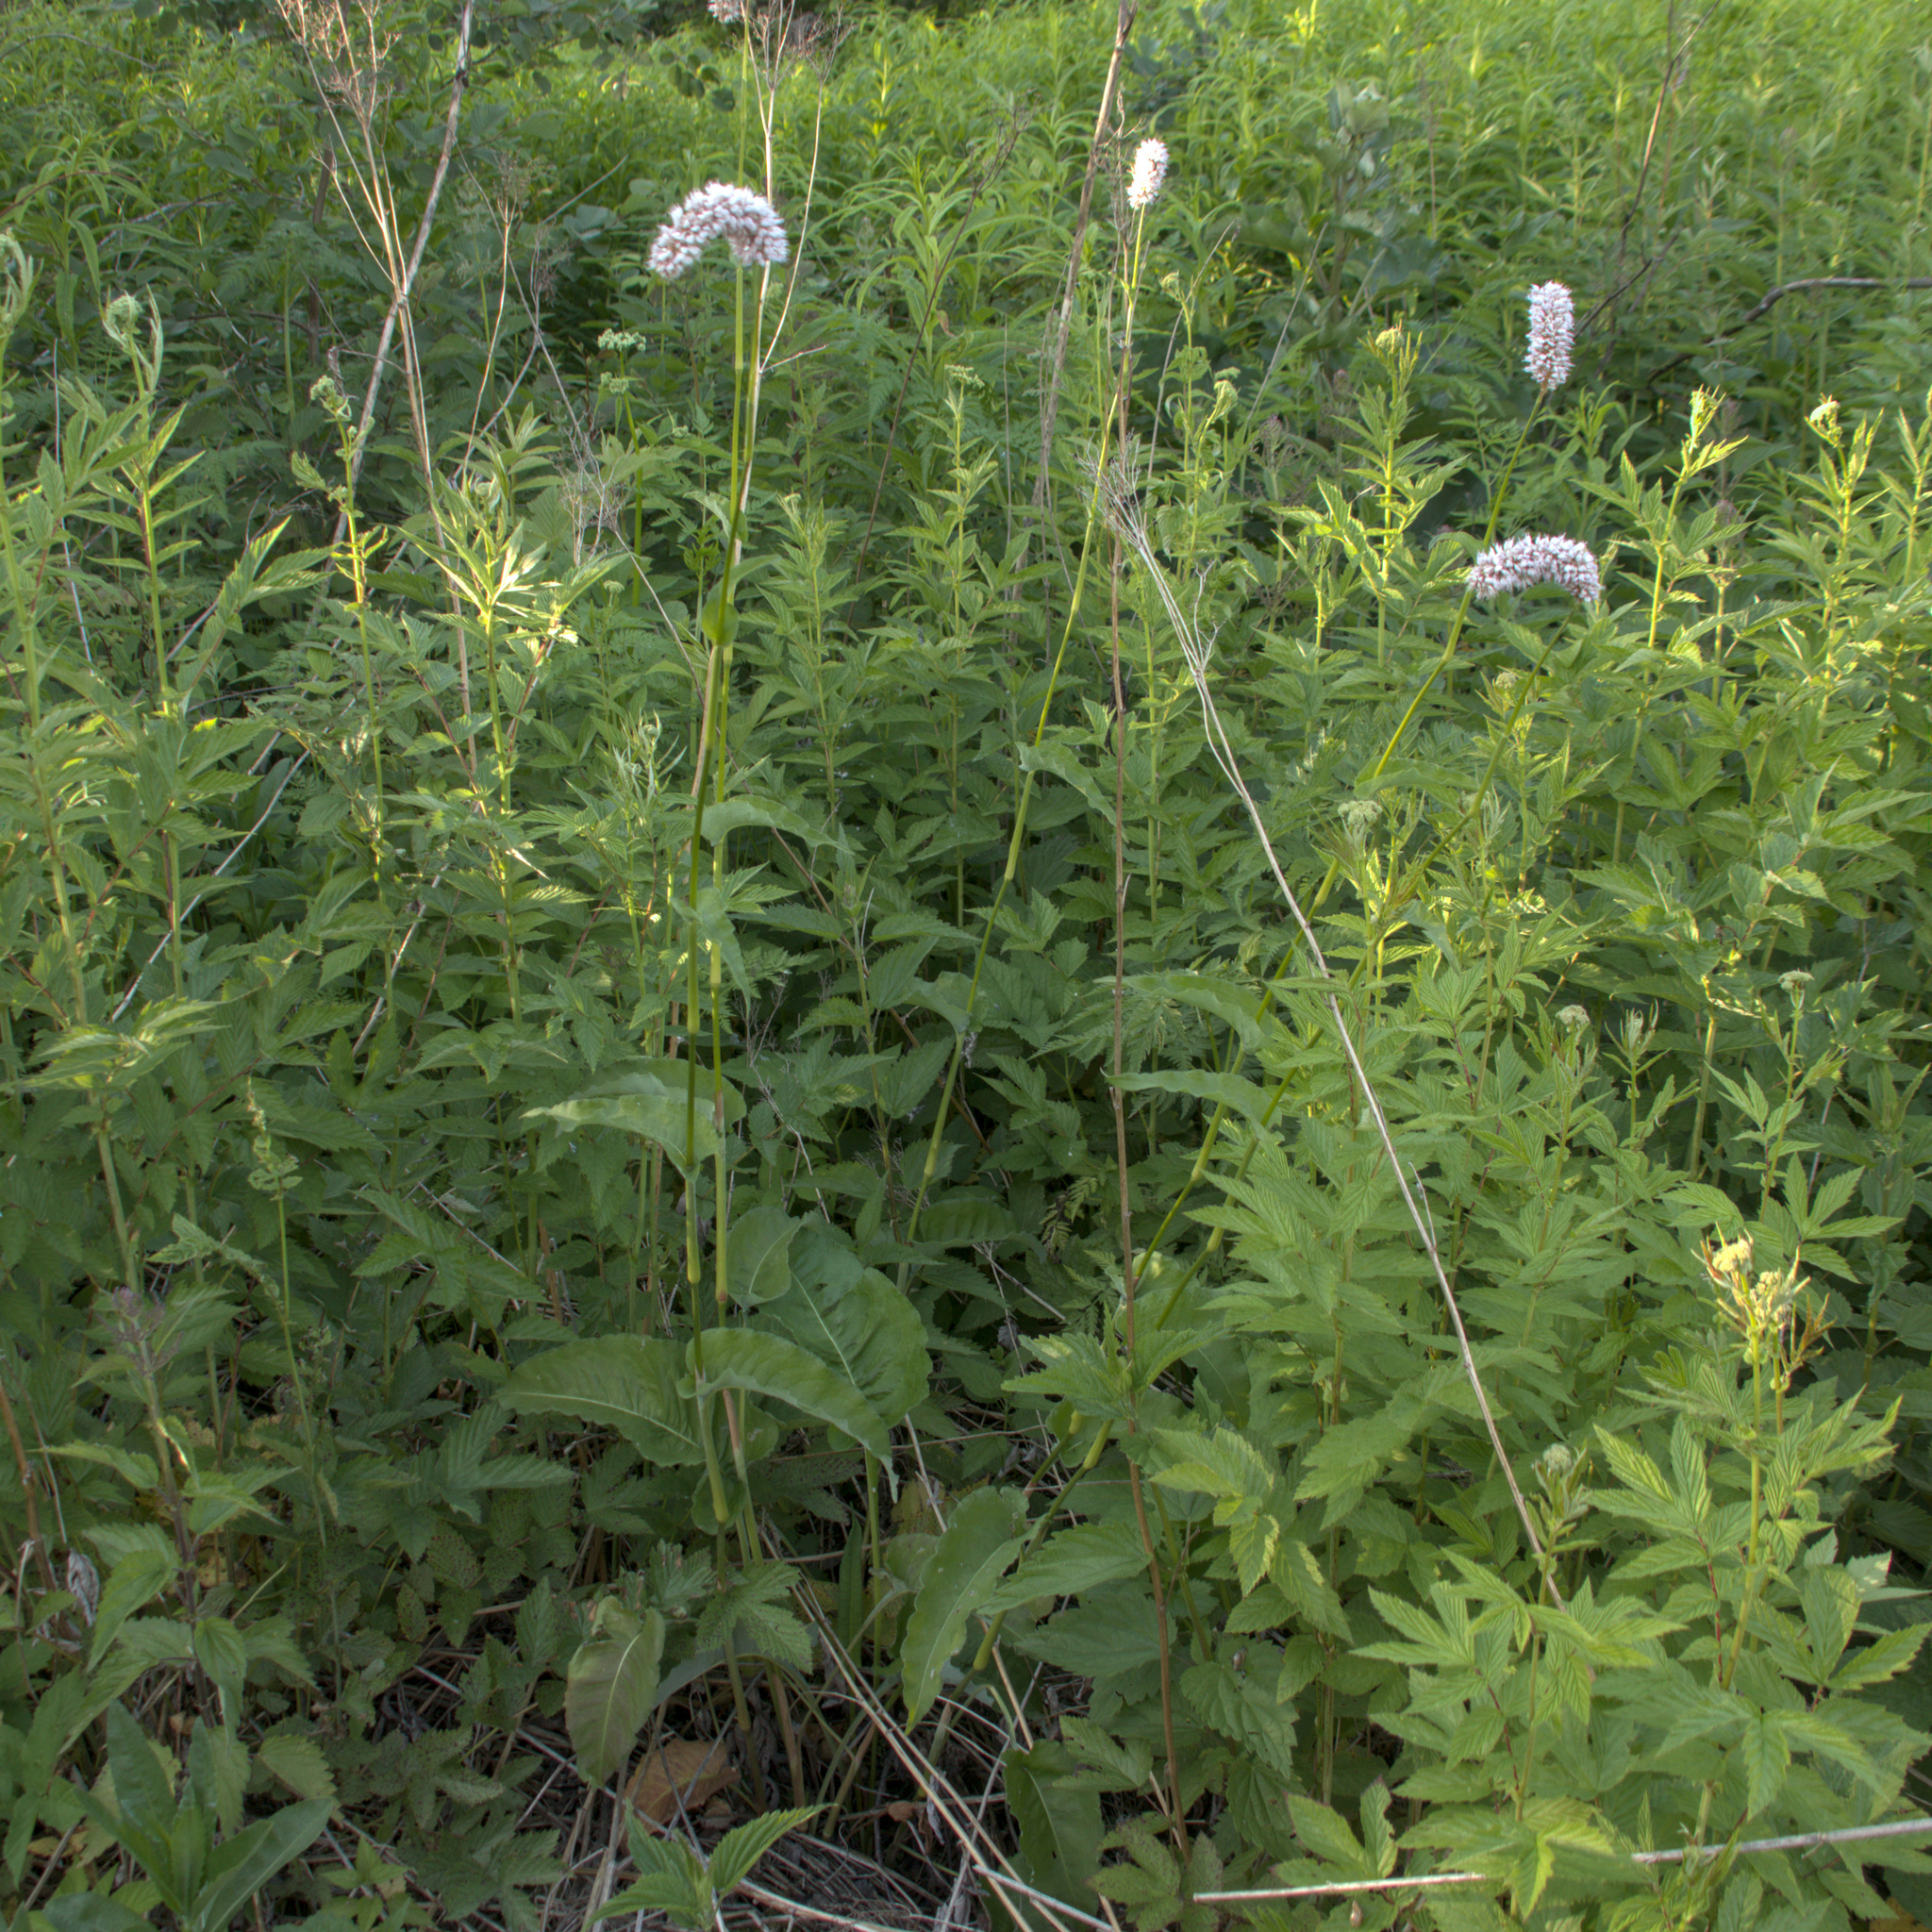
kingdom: Plantae
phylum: Tracheophyta
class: Magnoliopsida
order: Caryophyllales
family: Polygonaceae
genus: Bistorta
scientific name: Bistorta officinalis
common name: Common bistort
